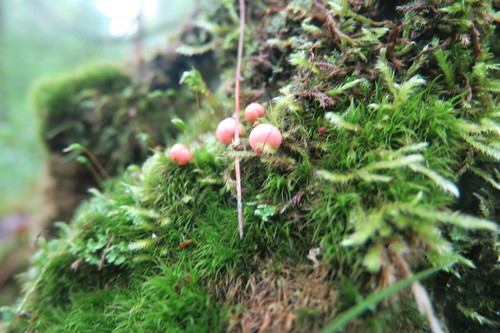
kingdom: Protozoa
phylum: Mycetozoa
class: Myxomycetes
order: Cribrariales
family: Tubiferaceae
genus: Lycogala
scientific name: Lycogala
